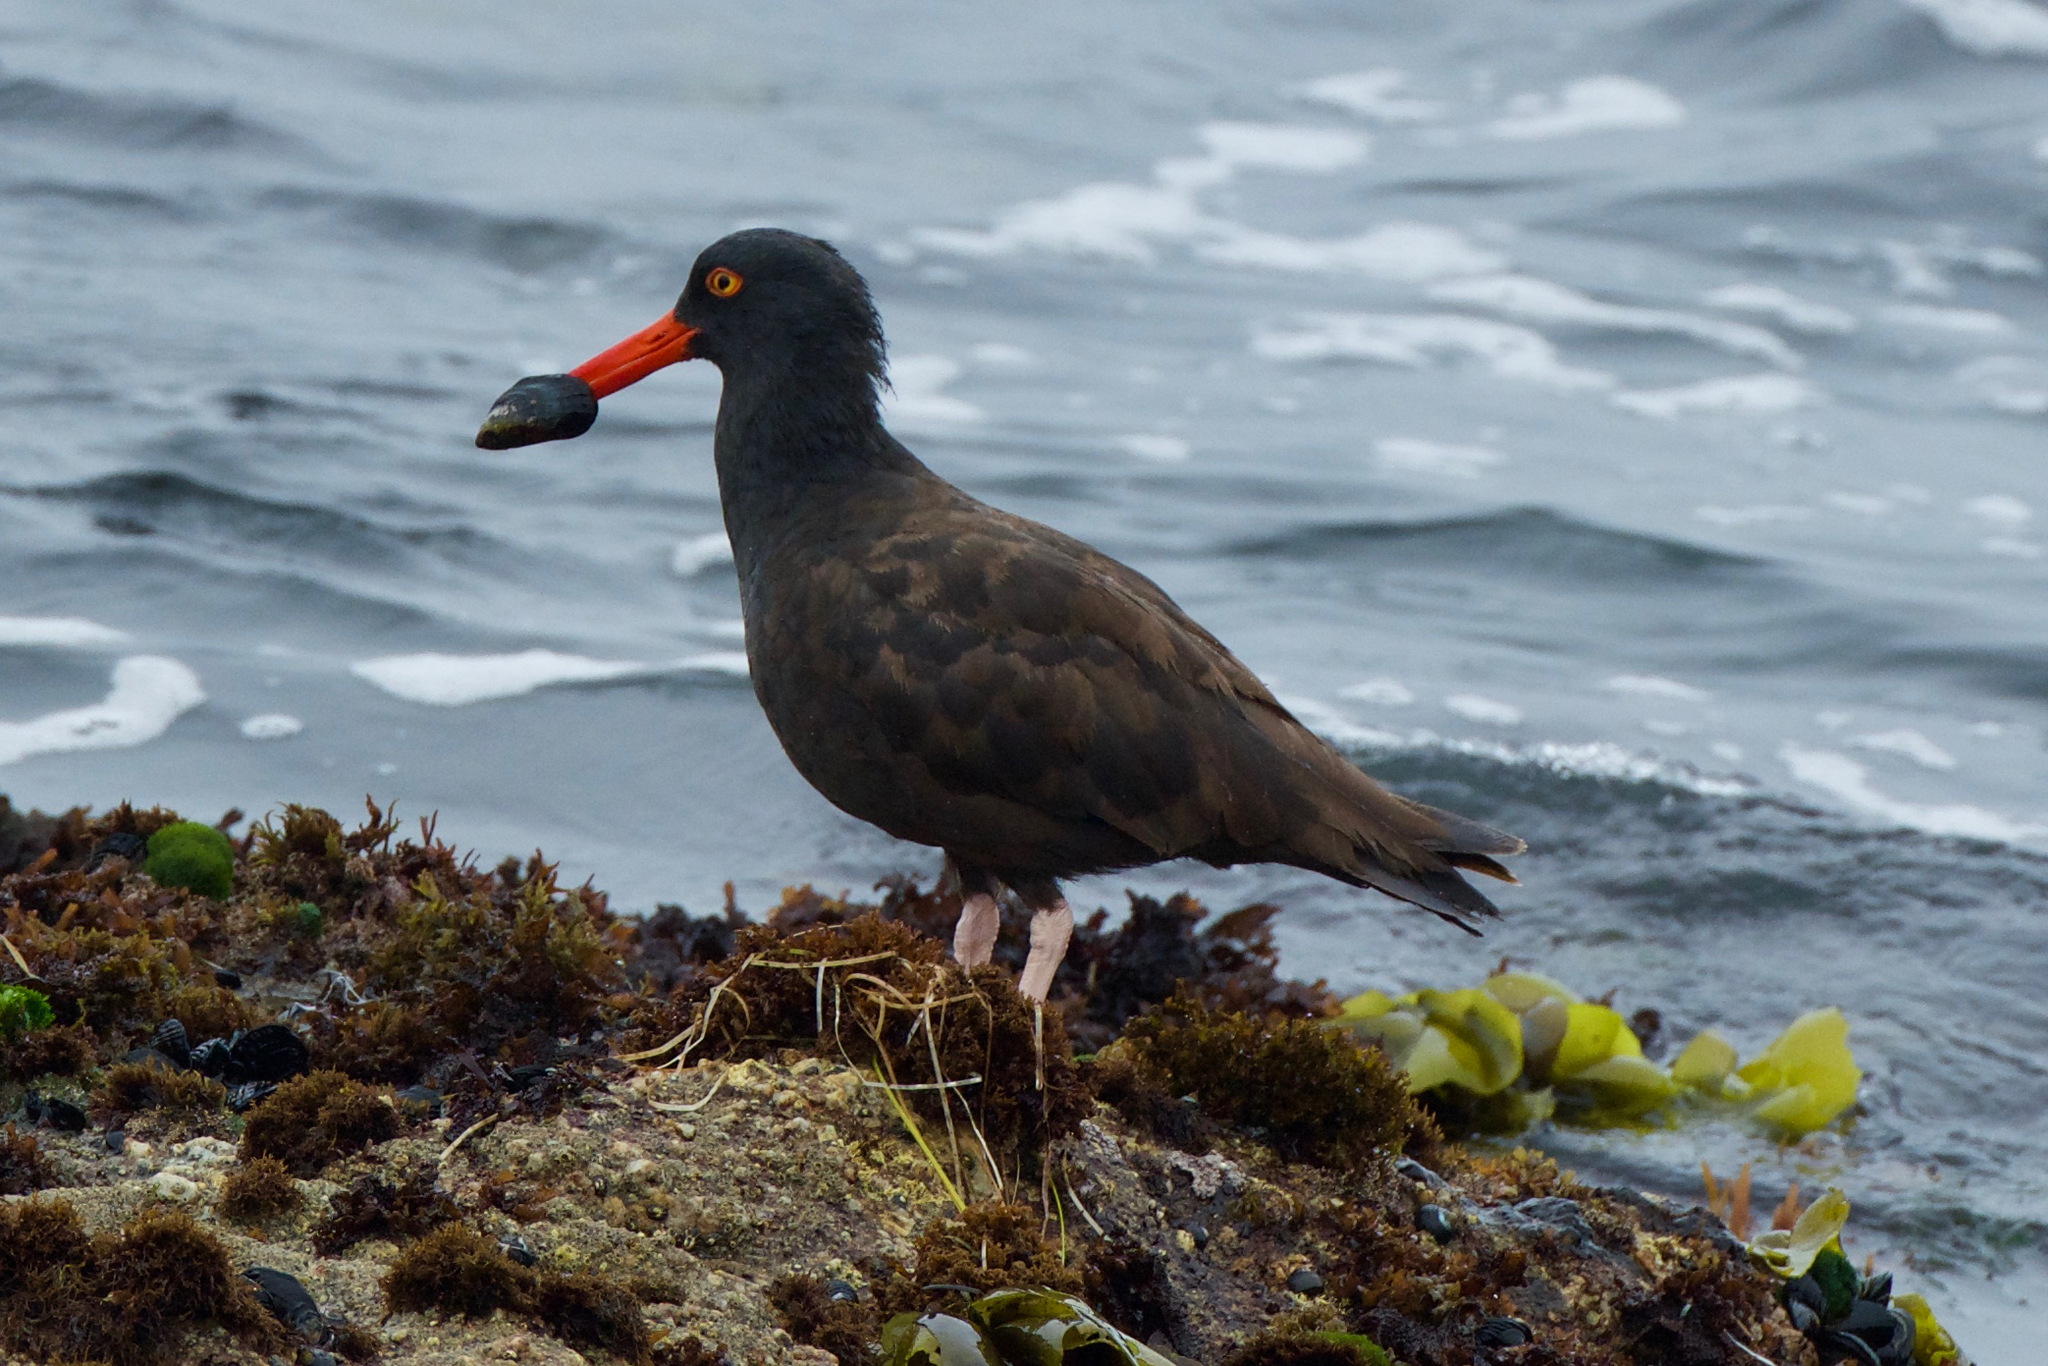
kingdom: Animalia
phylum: Chordata
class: Aves
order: Charadriiformes
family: Haematopodidae
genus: Haematopus
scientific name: Haematopus bachmani
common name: Black oystercatcher
